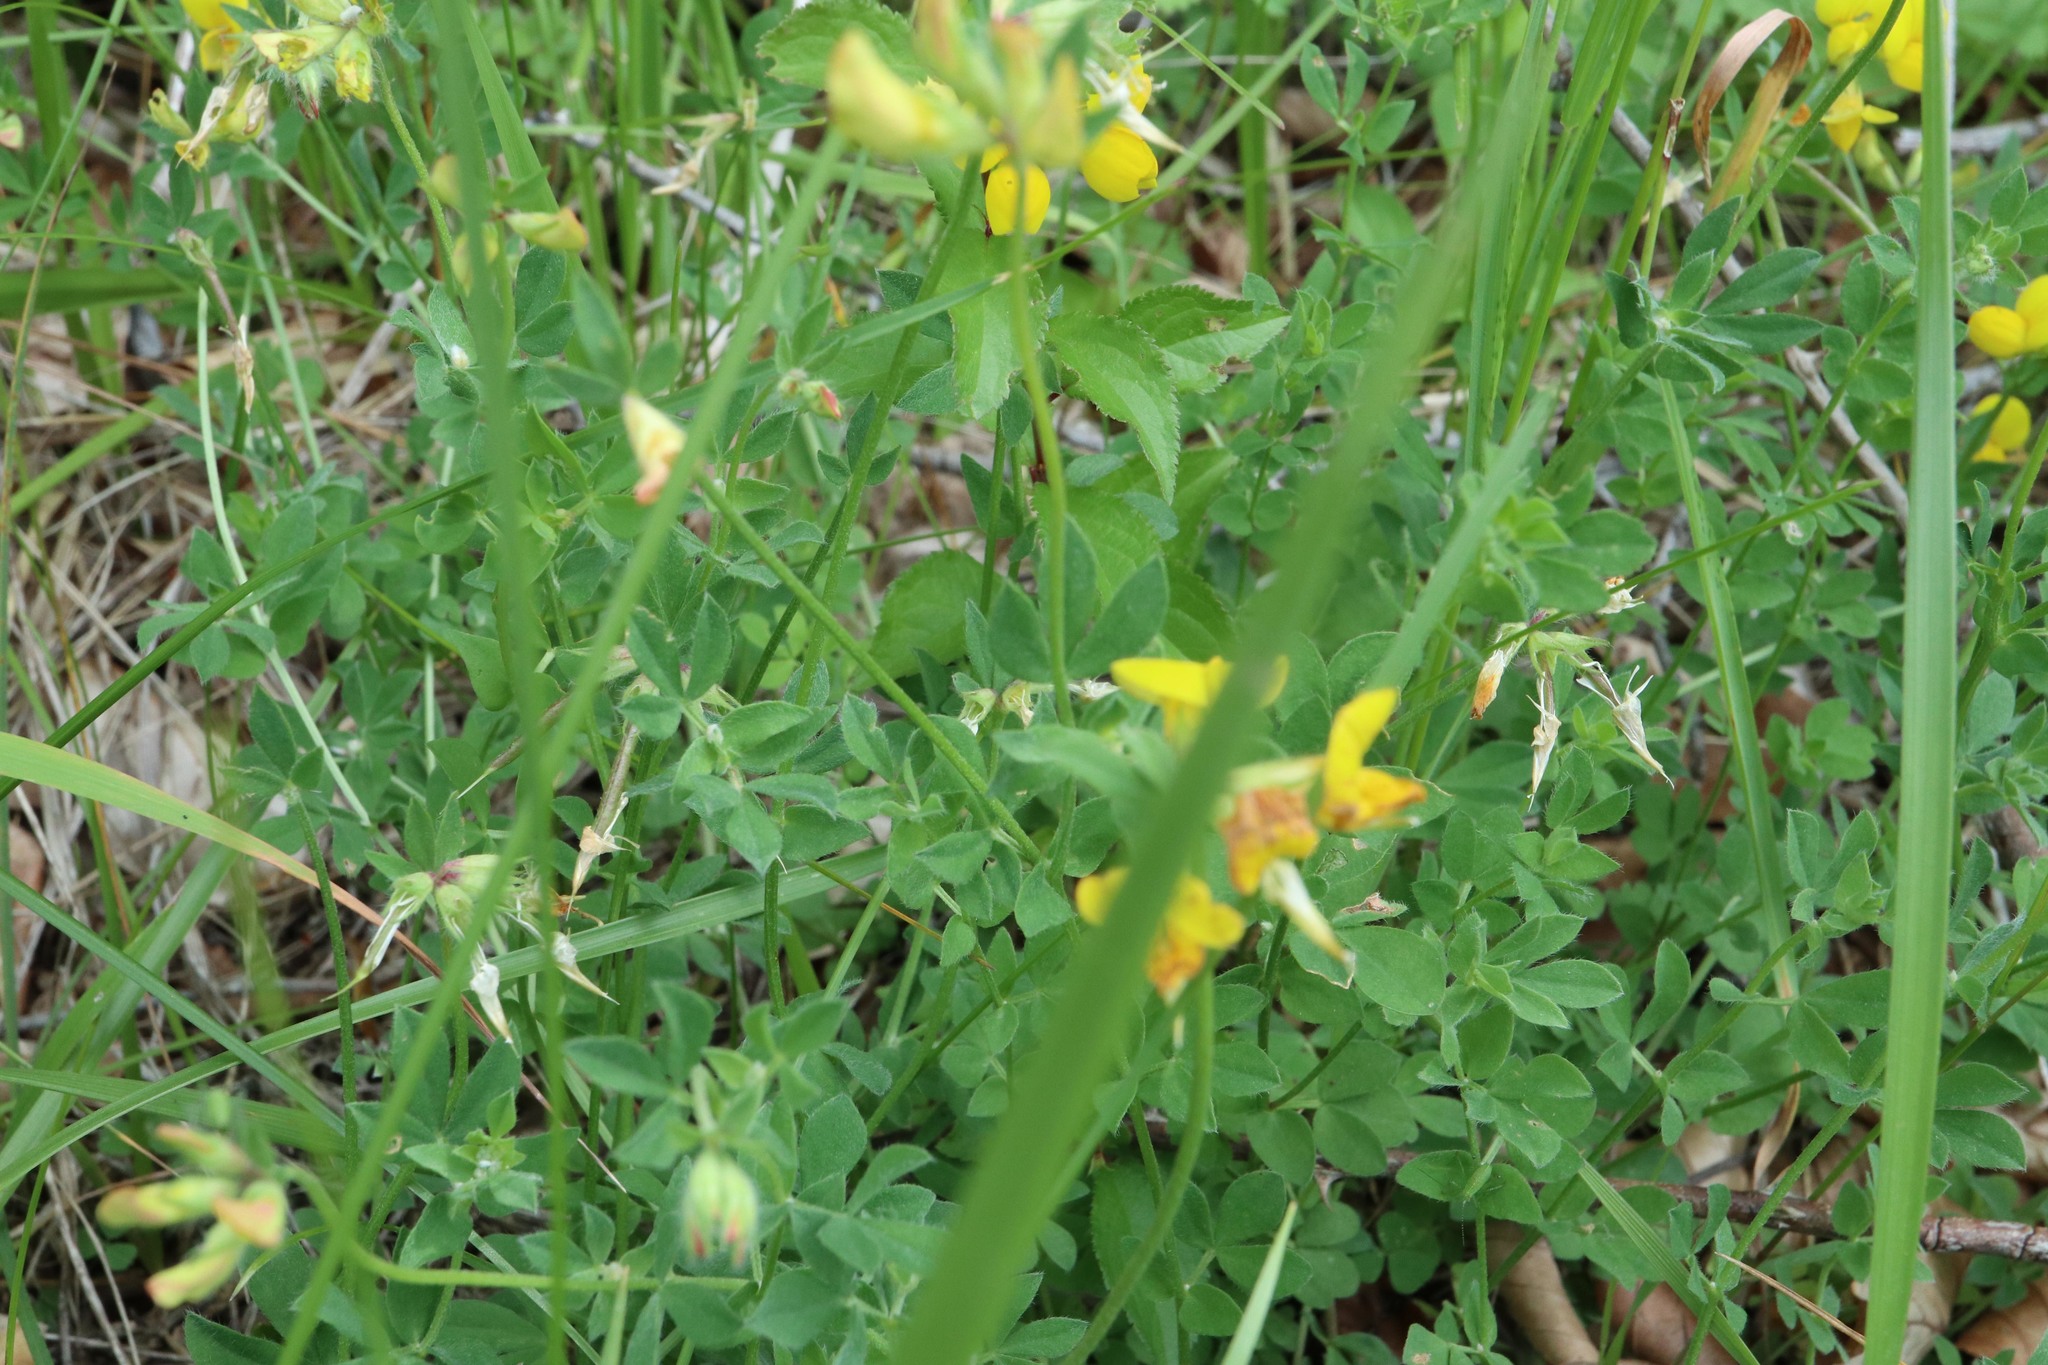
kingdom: Plantae
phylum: Tracheophyta
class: Magnoliopsida
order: Fabales
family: Fabaceae
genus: Lotus
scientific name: Lotus corniculatus
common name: Common bird's-foot-trefoil
